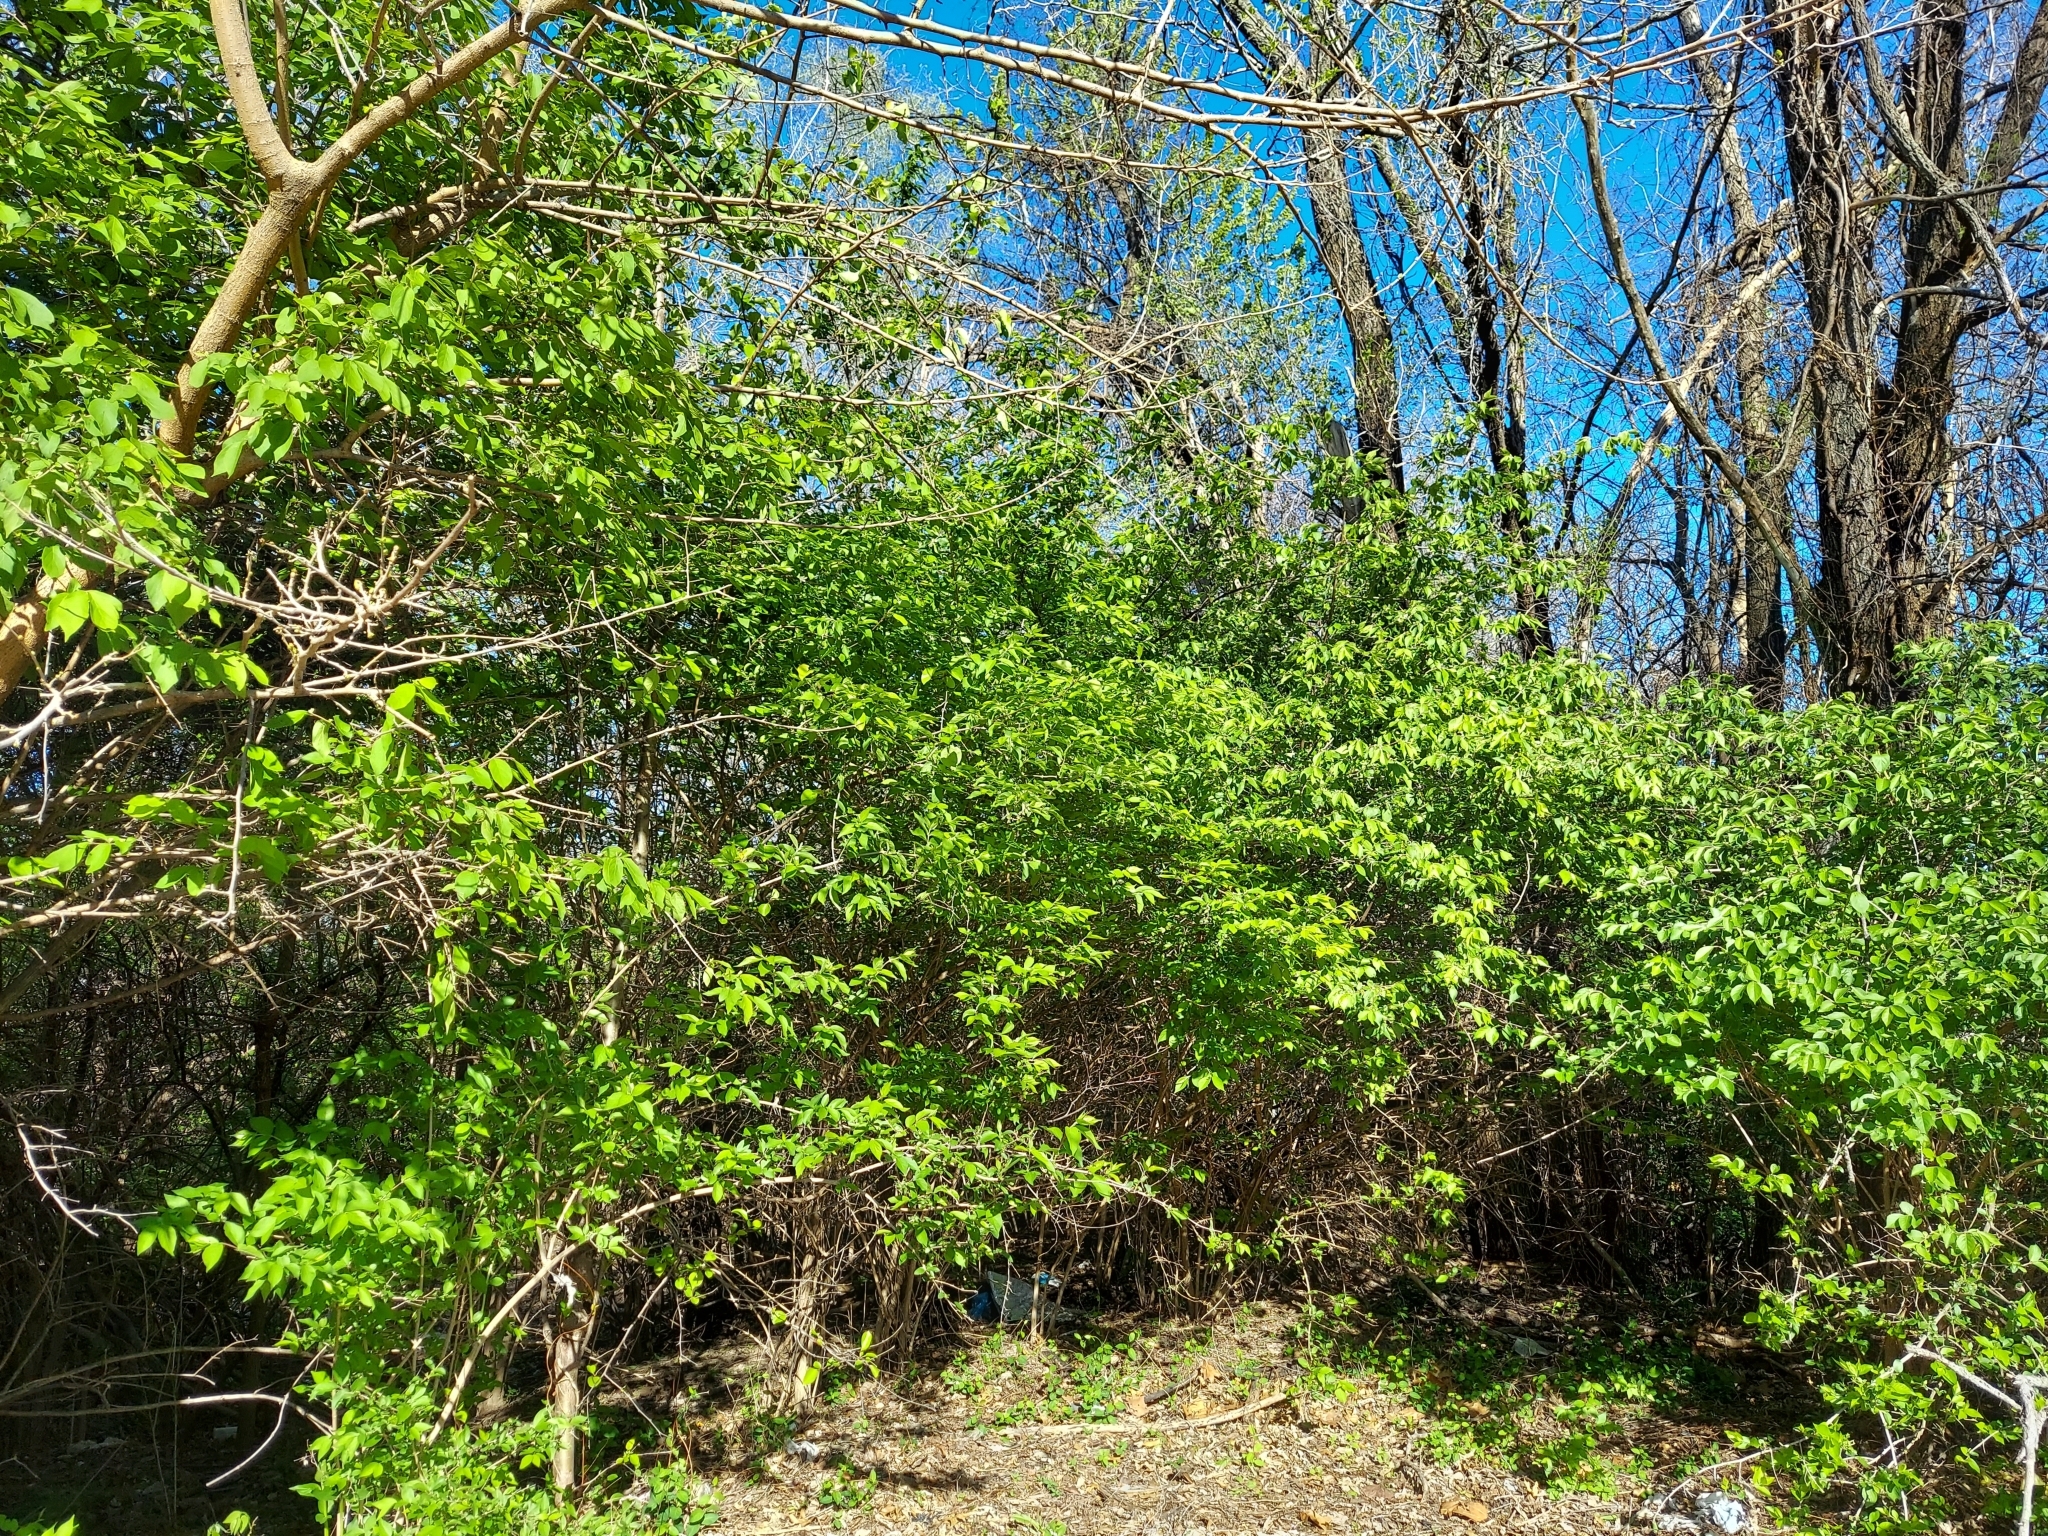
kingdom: Plantae
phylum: Tracheophyta
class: Magnoliopsida
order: Dipsacales
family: Caprifoliaceae
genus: Lonicera
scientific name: Lonicera maackii
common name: Amur honeysuckle
